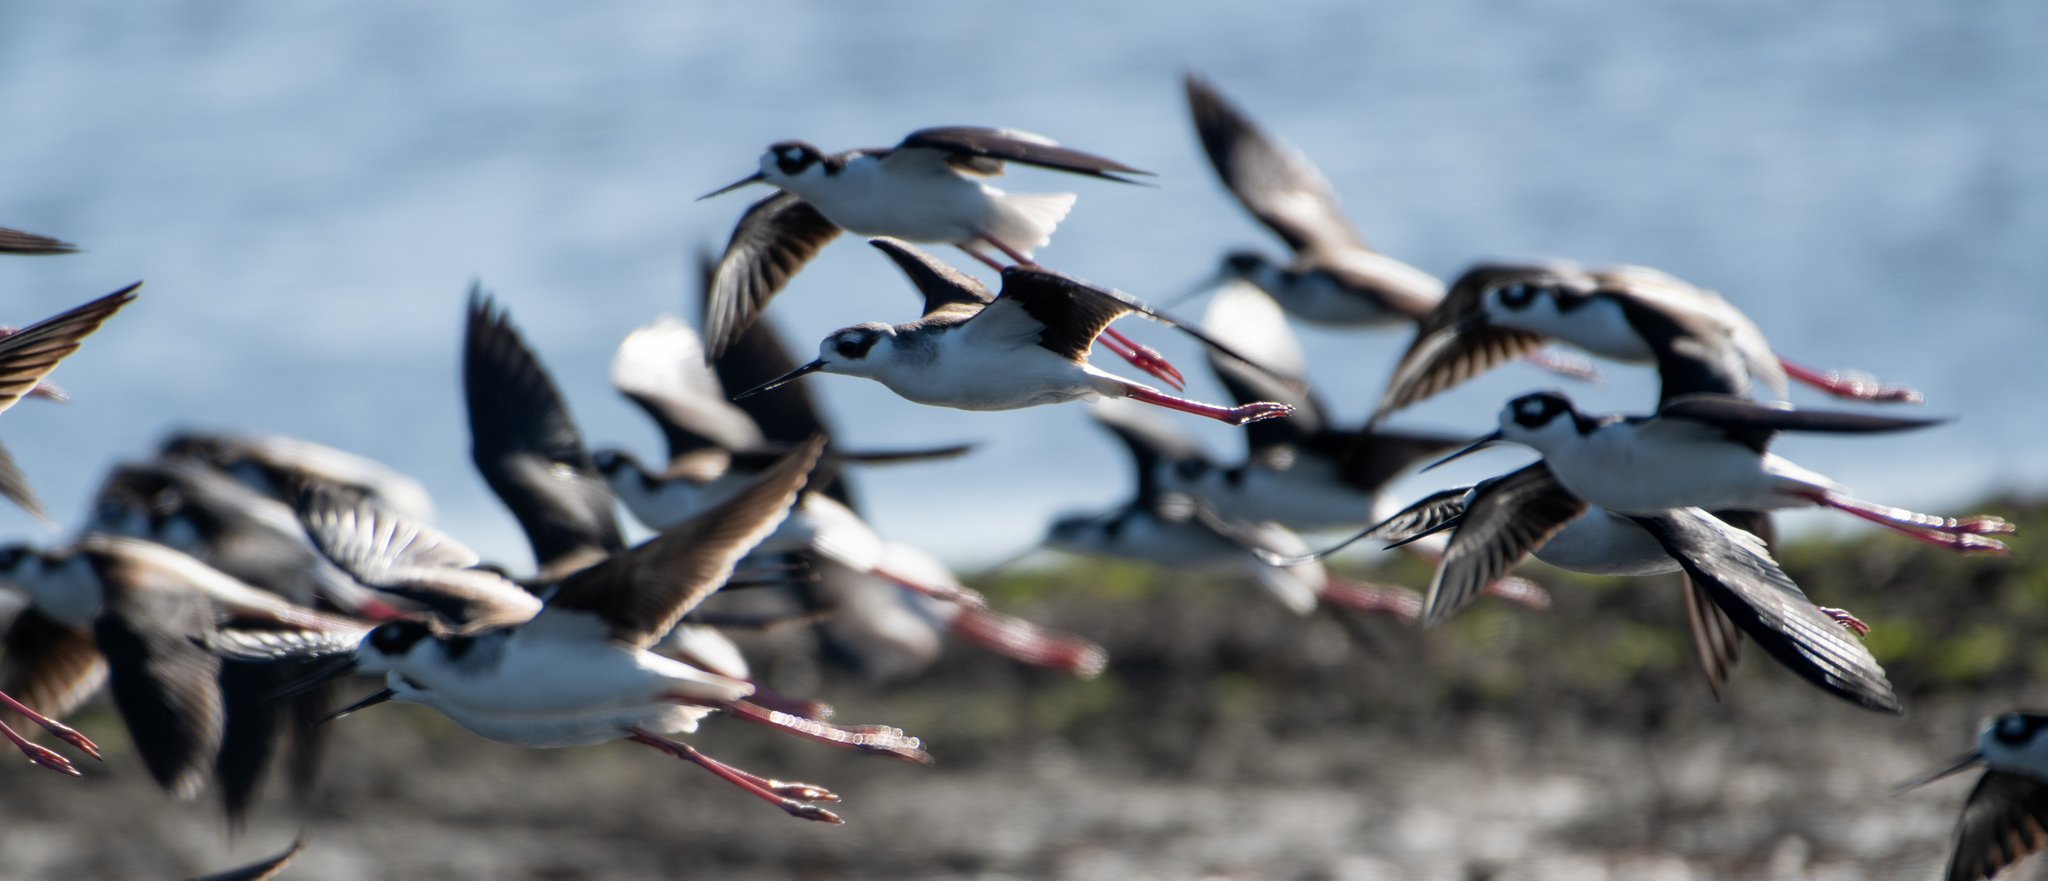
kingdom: Animalia
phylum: Chordata
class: Aves
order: Charadriiformes
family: Recurvirostridae
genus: Himantopus
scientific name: Himantopus mexicanus
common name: Black-necked stilt
